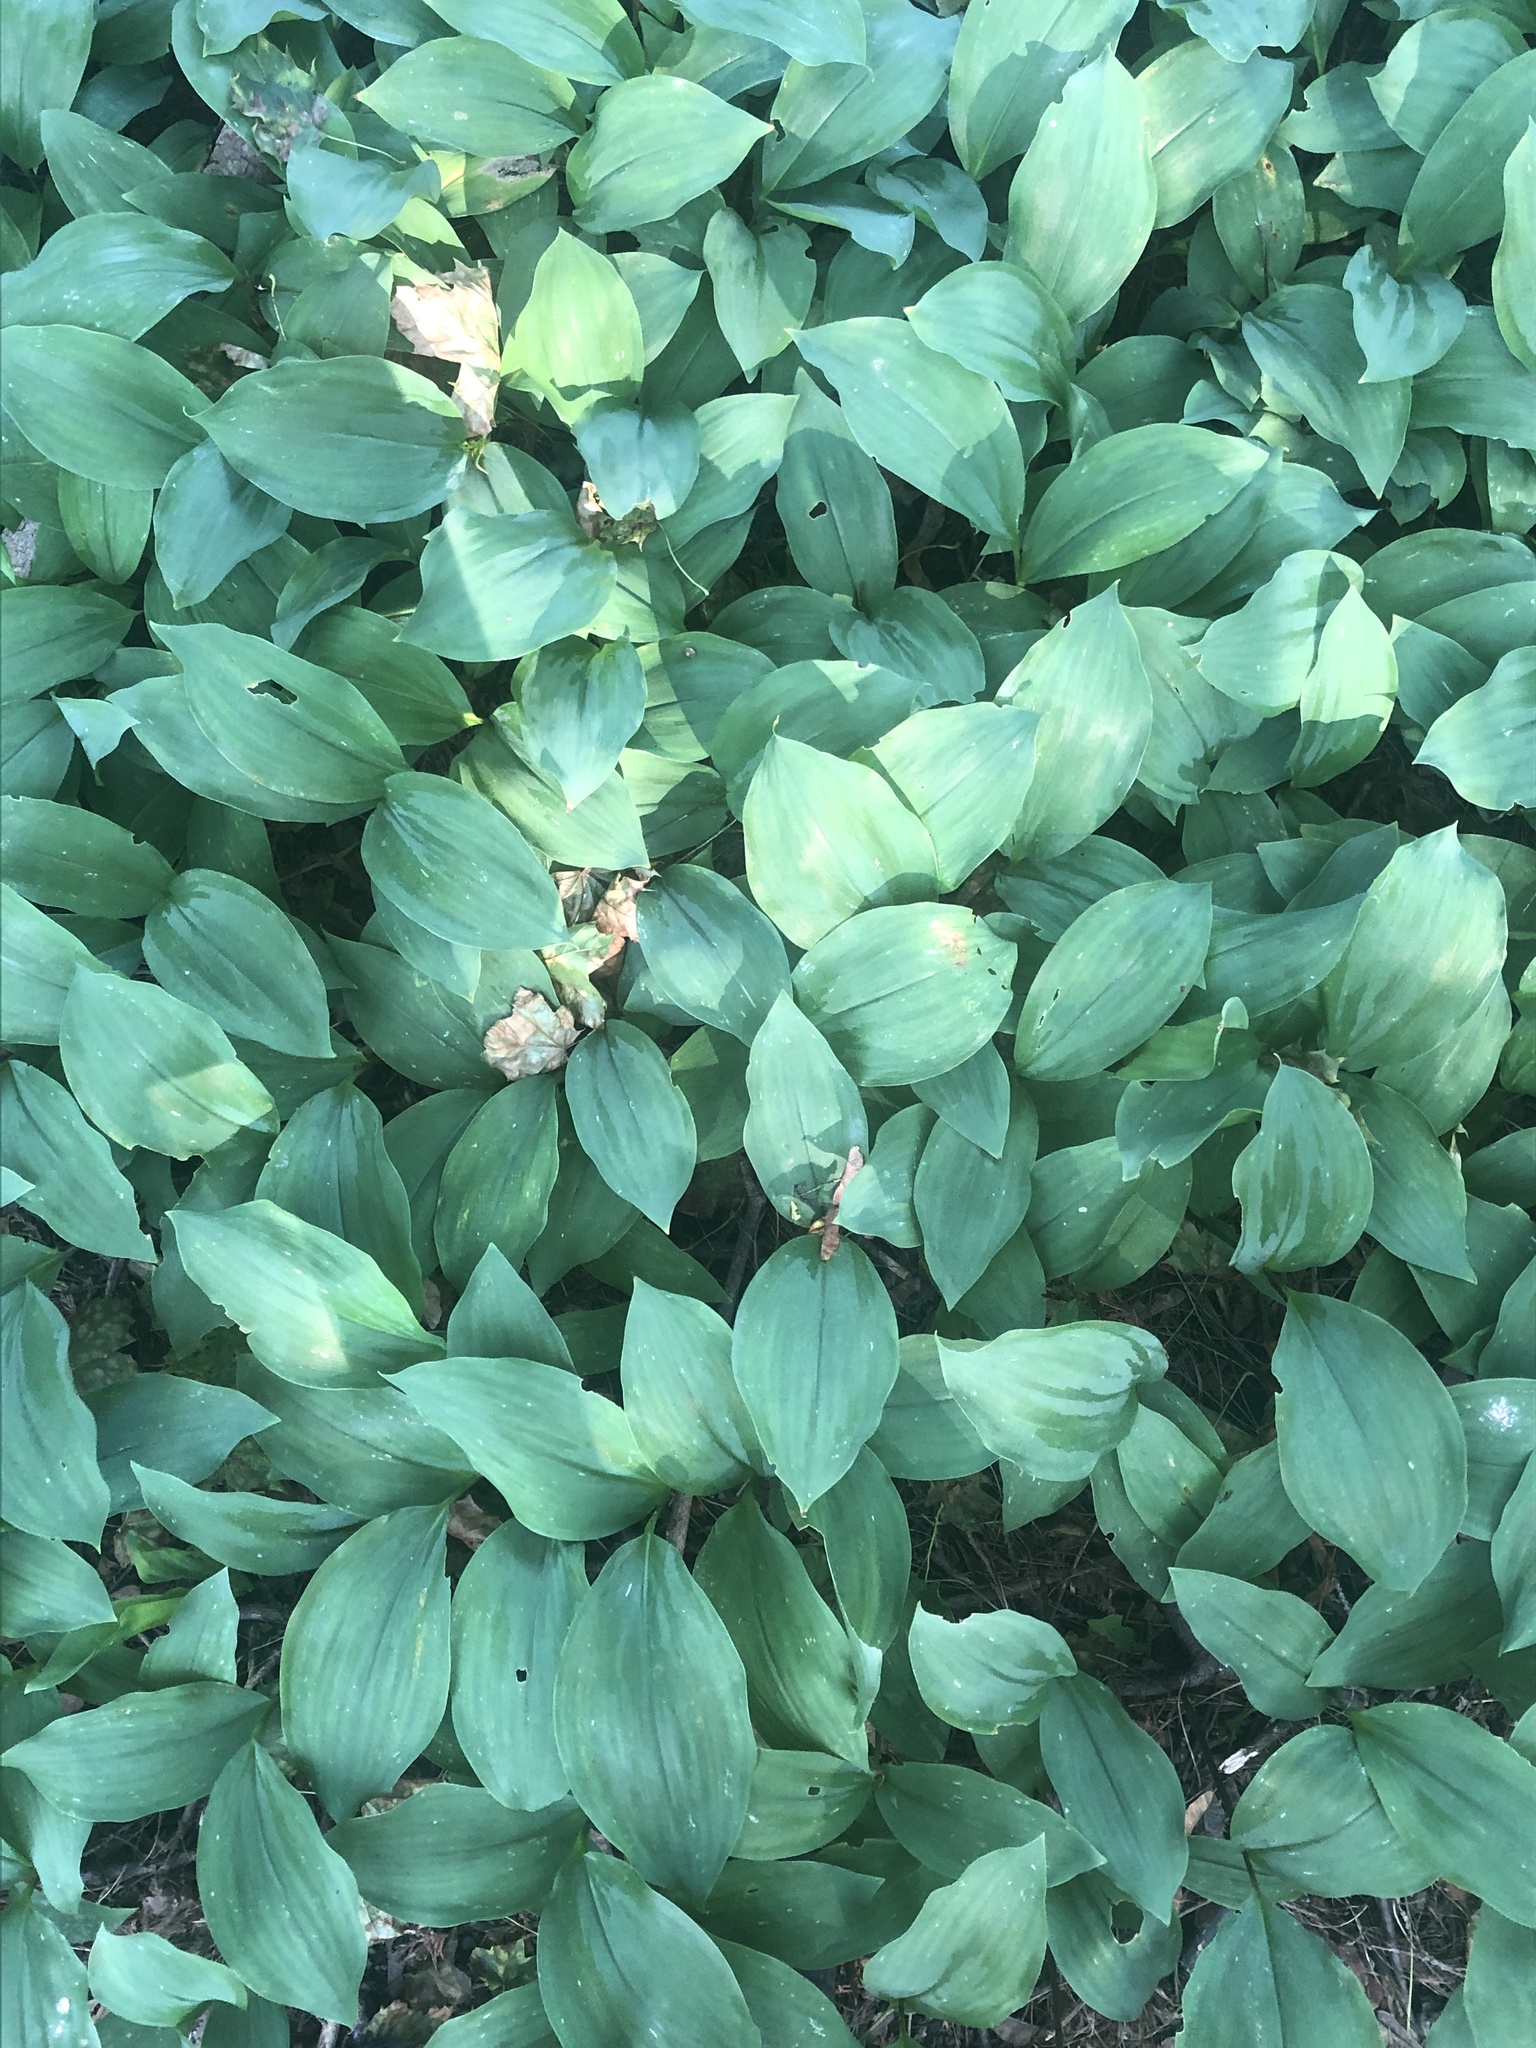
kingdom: Plantae
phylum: Tracheophyta
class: Liliopsida
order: Asparagales
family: Asparagaceae
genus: Convallaria
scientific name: Convallaria majalis
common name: Lily-of-the-valley
